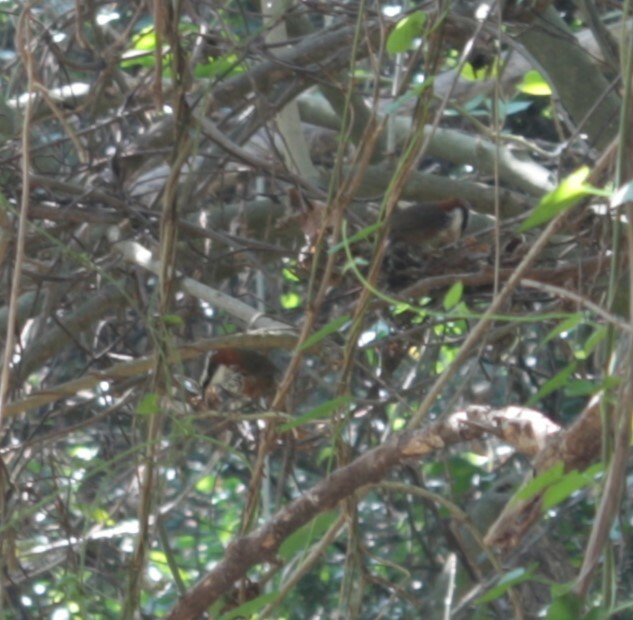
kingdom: Animalia
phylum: Chordata
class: Aves
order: Passeriformes
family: Timaliidae
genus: Pomatorhinus
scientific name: Pomatorhinus musicus
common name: Taiwan scimitar-babbler
